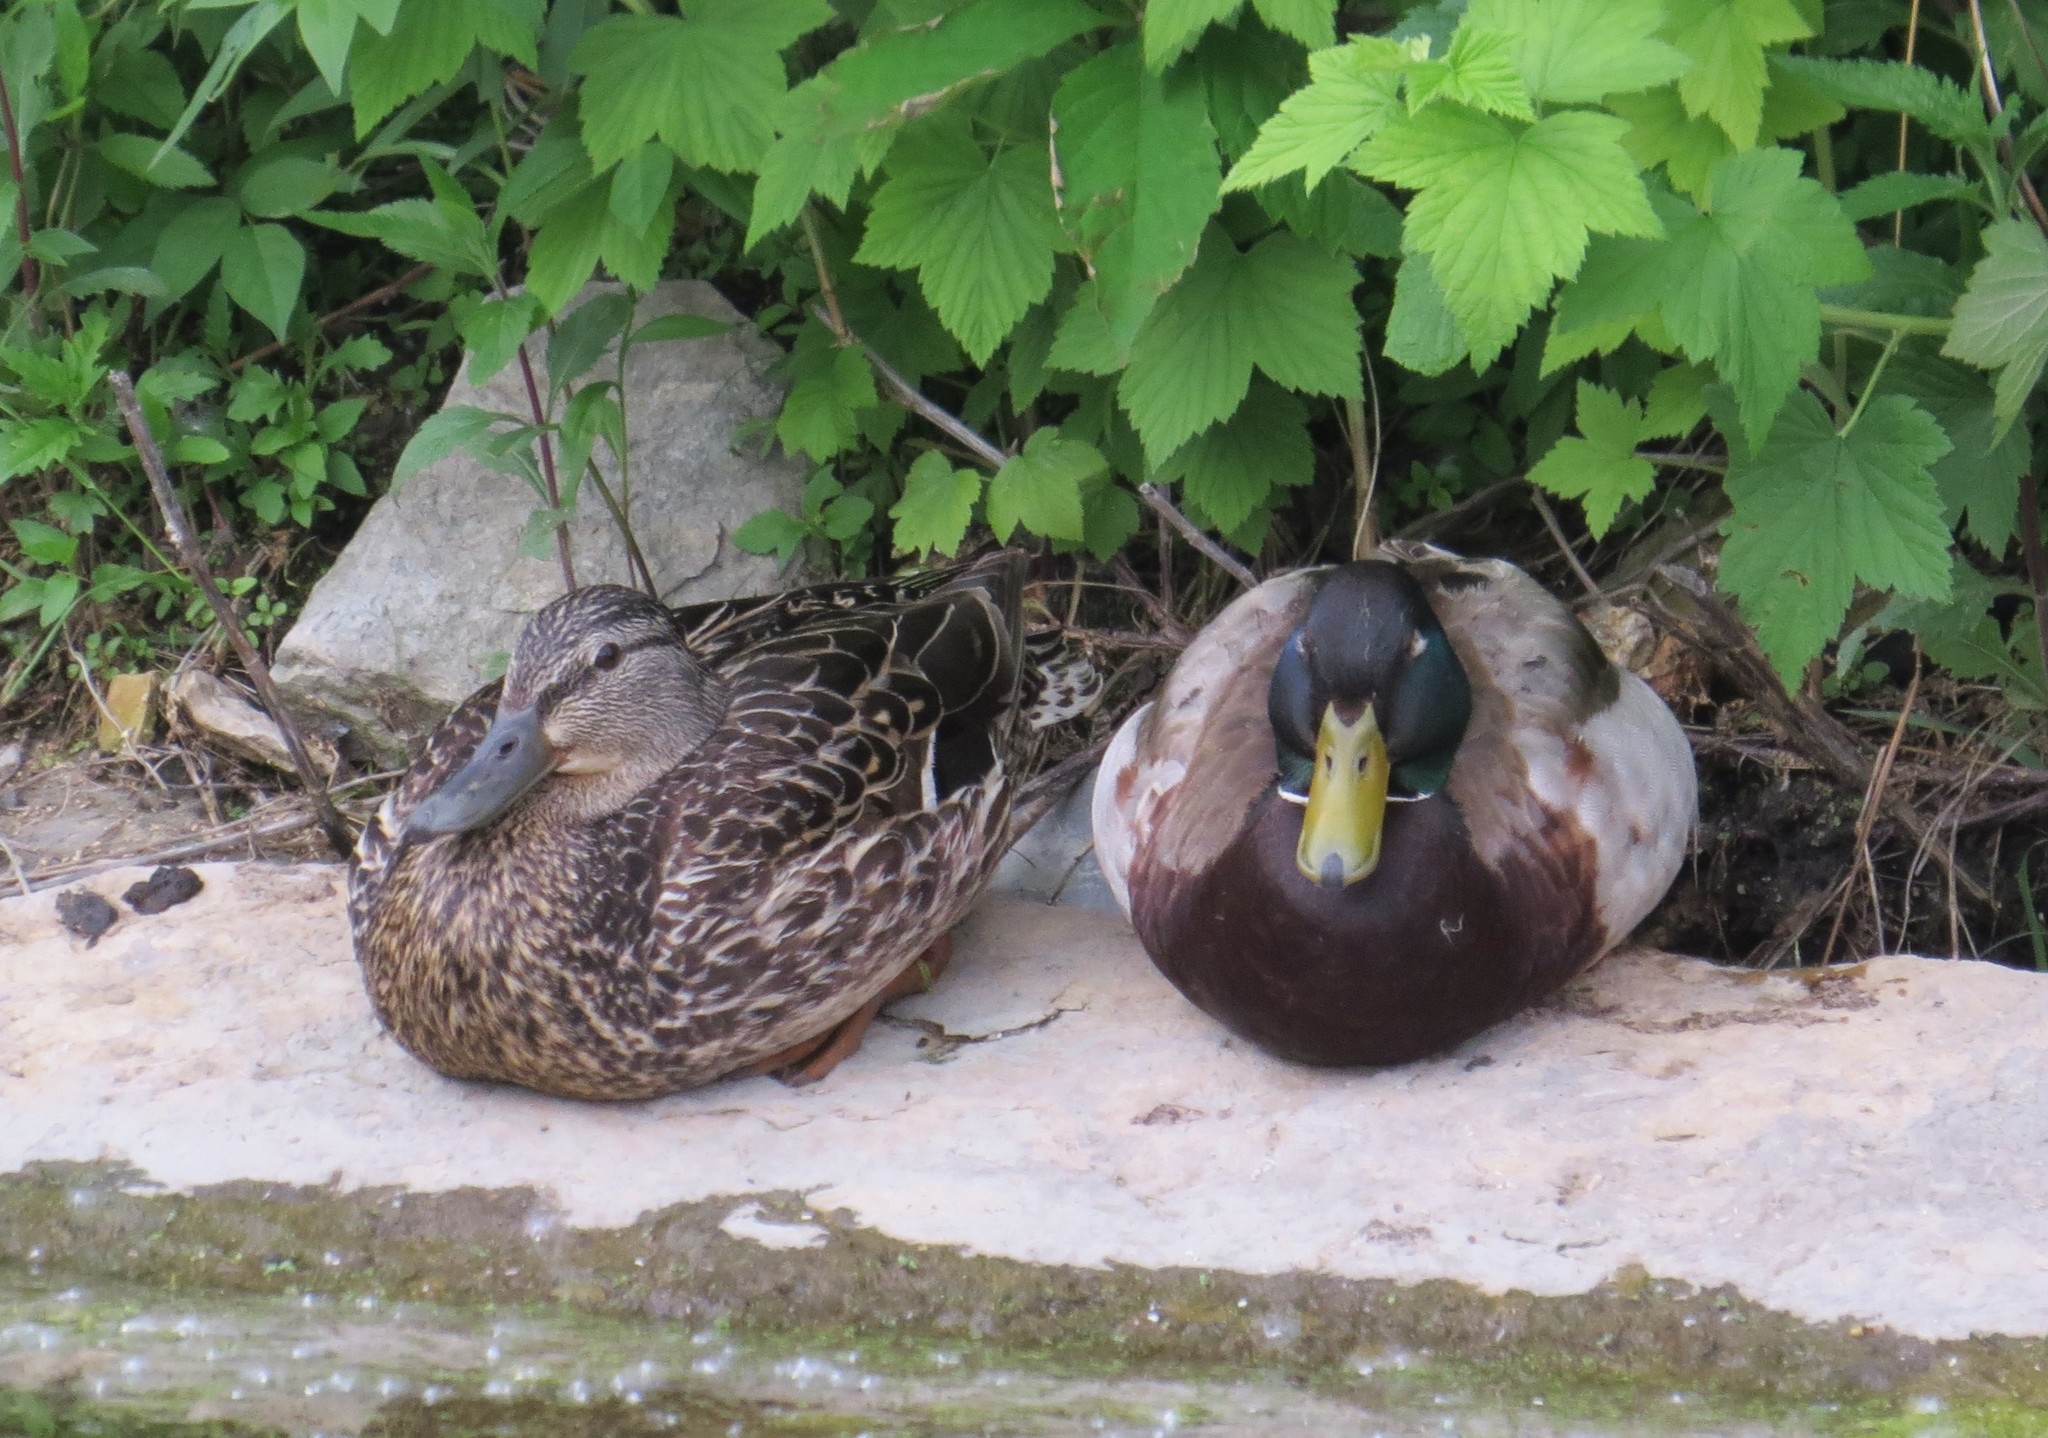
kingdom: Animalia
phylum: Chordata
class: Aves
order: Anseriformes
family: Anatidae
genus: Anas
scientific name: Anas platyrhynchos
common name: Mallard
